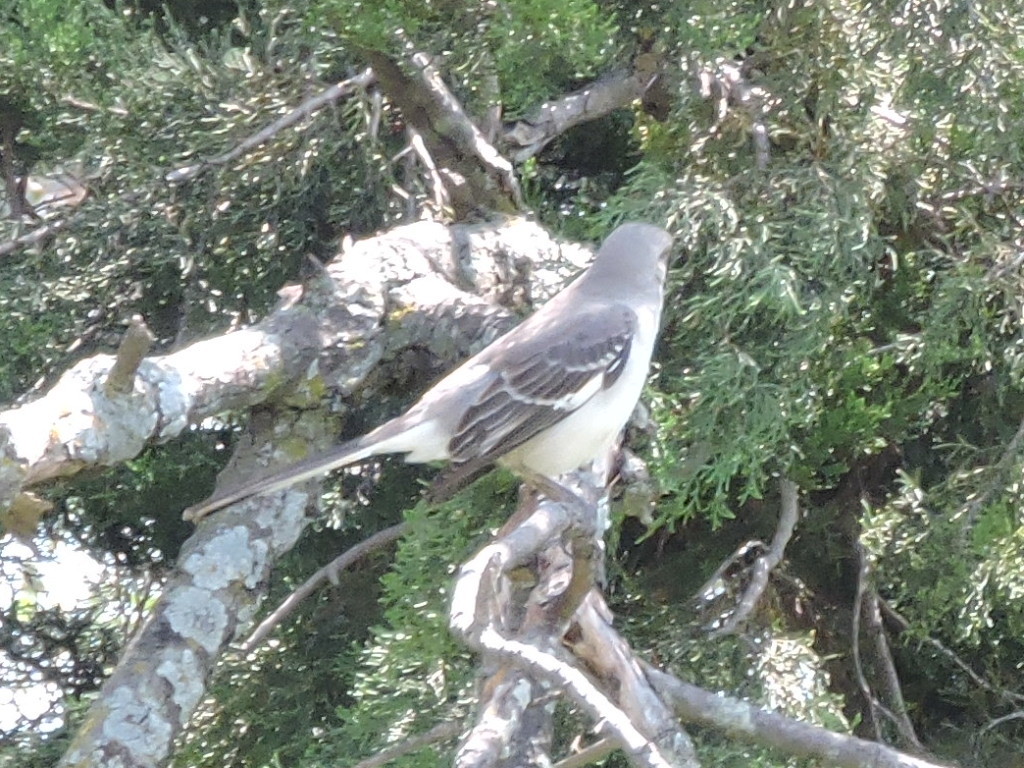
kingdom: Animalia
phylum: Chordata
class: Aves
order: Passeriformes
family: Mimidae
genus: Mimus
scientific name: Mimus polyglottos
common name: Northern mockingbird
